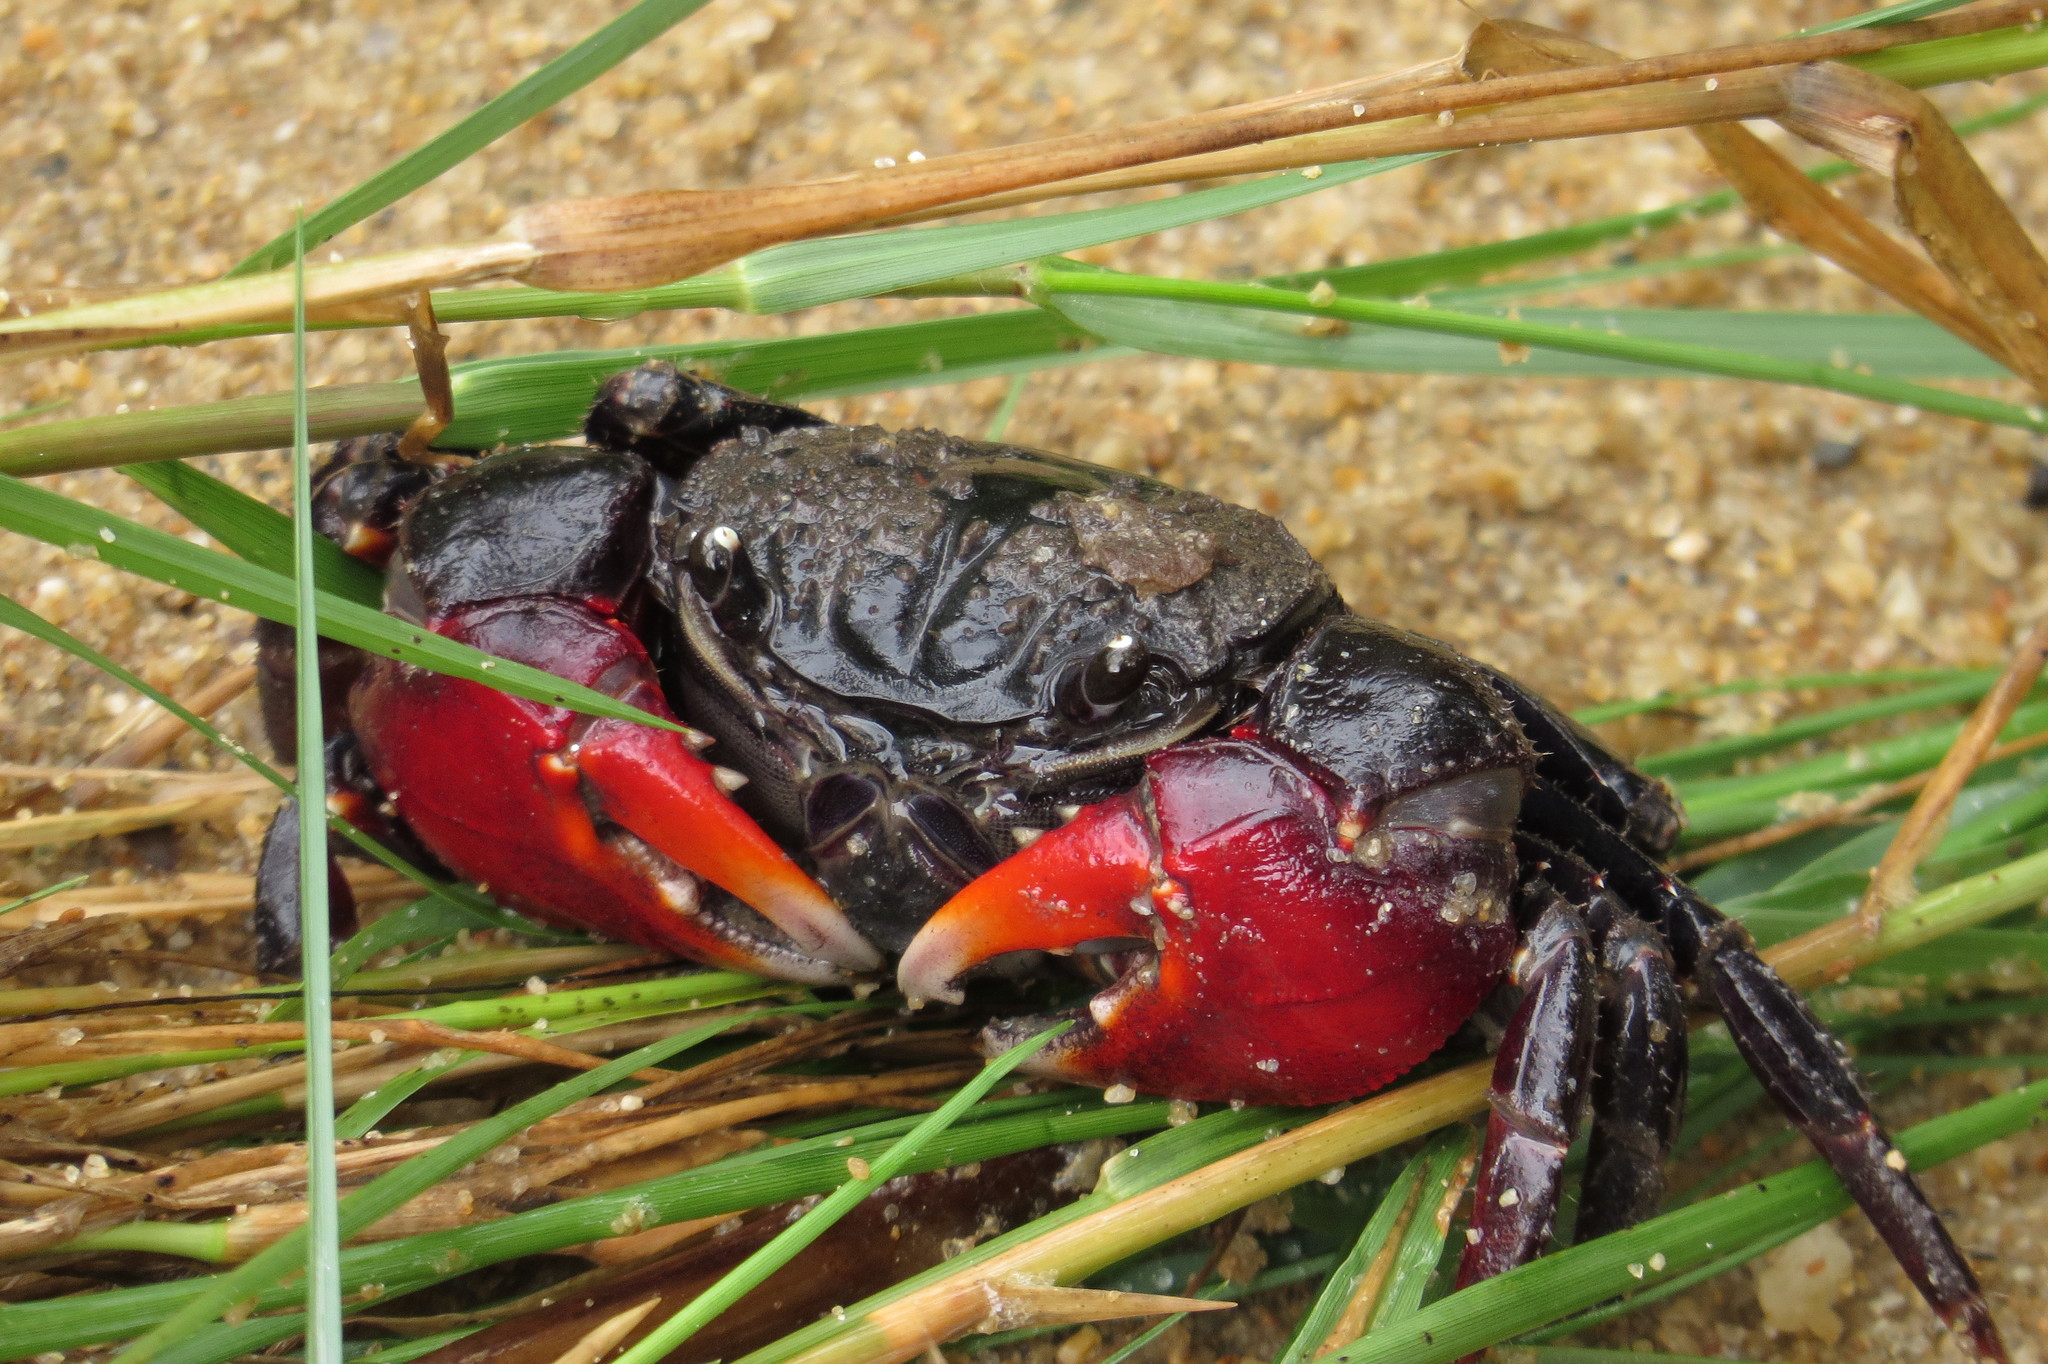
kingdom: Animalia
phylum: Arthropoda
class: Malacostraca
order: Decapoda
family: Sesarmidae
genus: Neosarmatium
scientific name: Neosarmatium trispinosum
